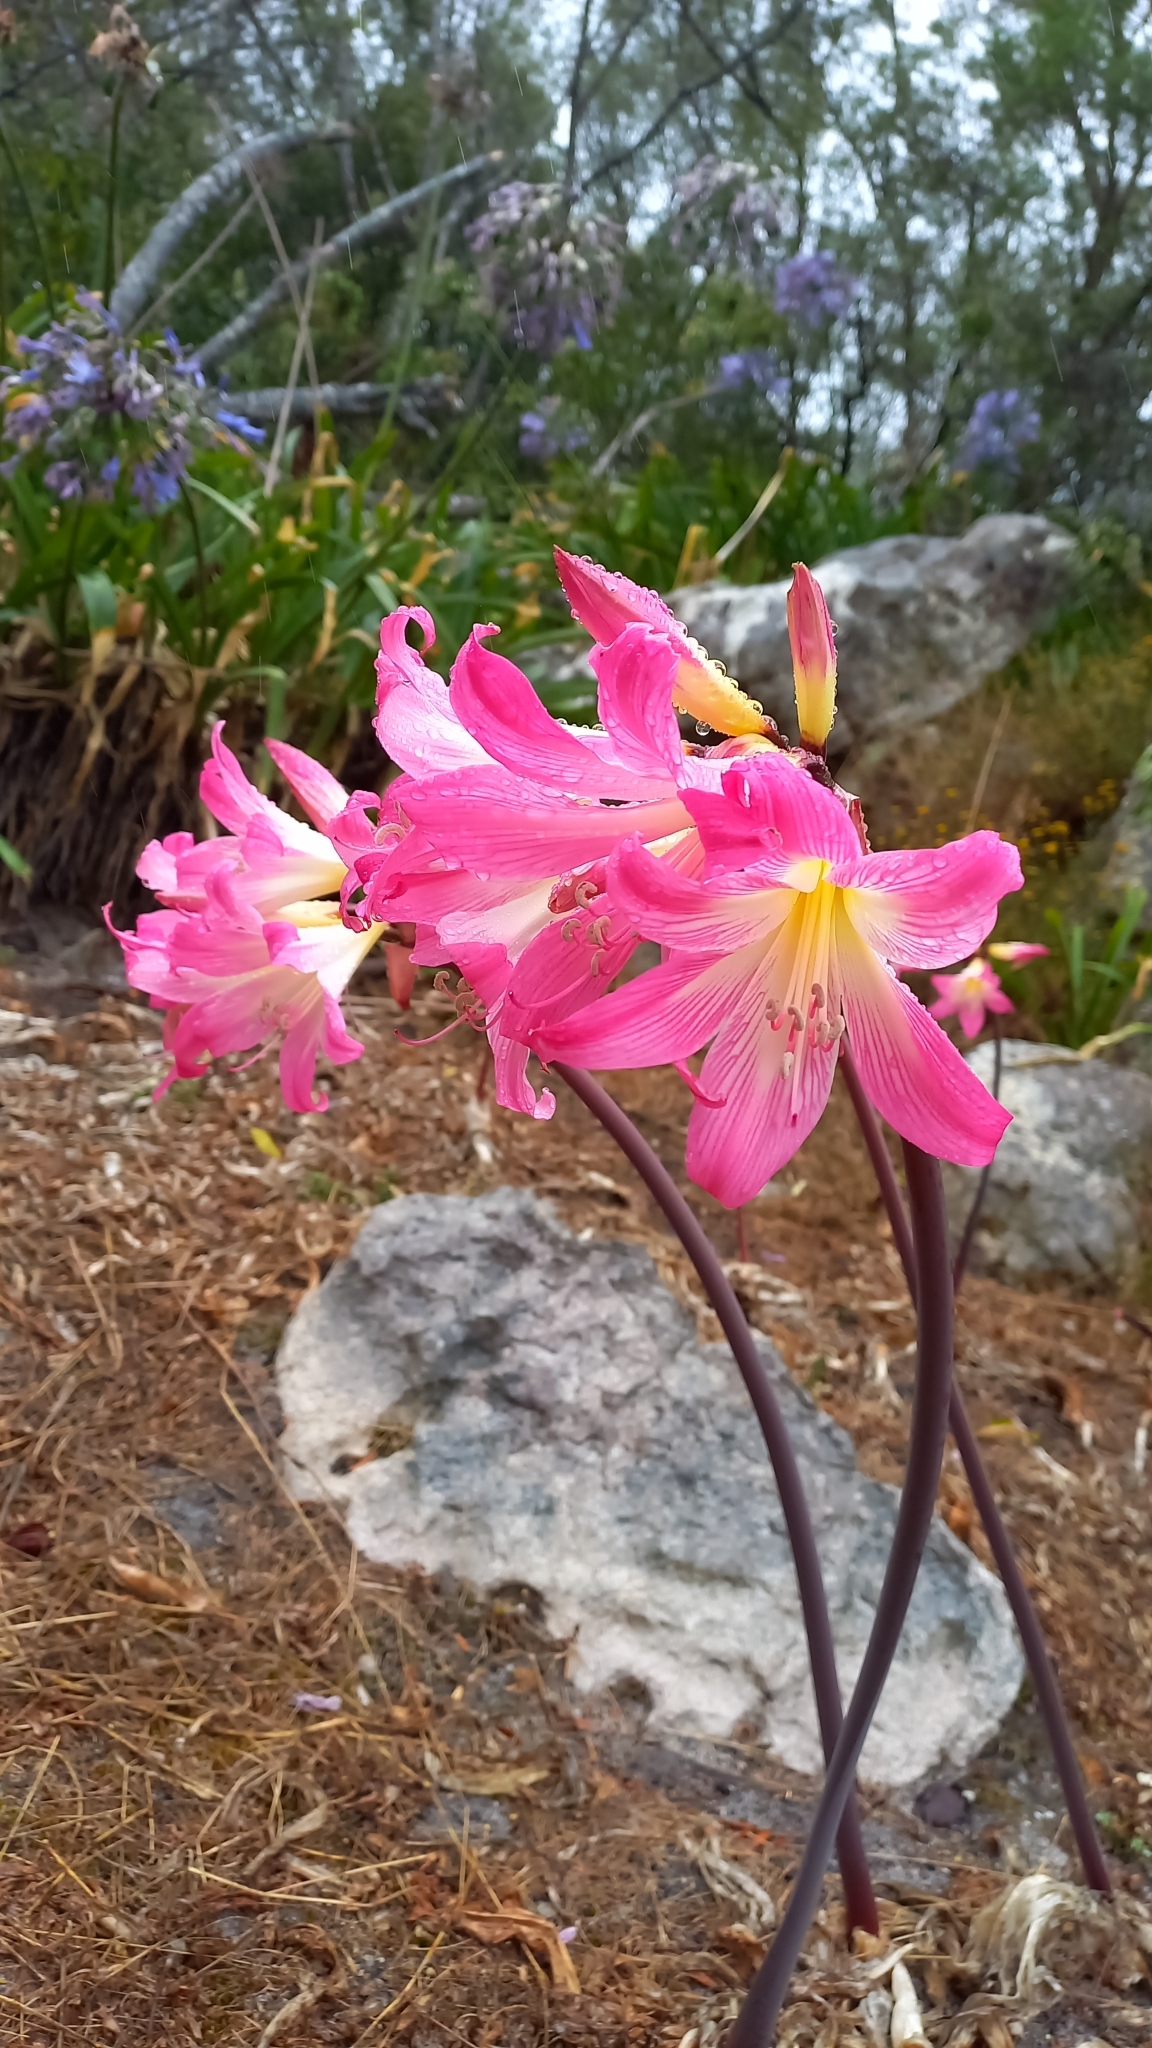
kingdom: Plantae
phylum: Tracheophyta
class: Liliopsida
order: Asparagales
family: Amaryllidaceae
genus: Amaryllis
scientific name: Amaryllis belladonna
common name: Jersey lily
